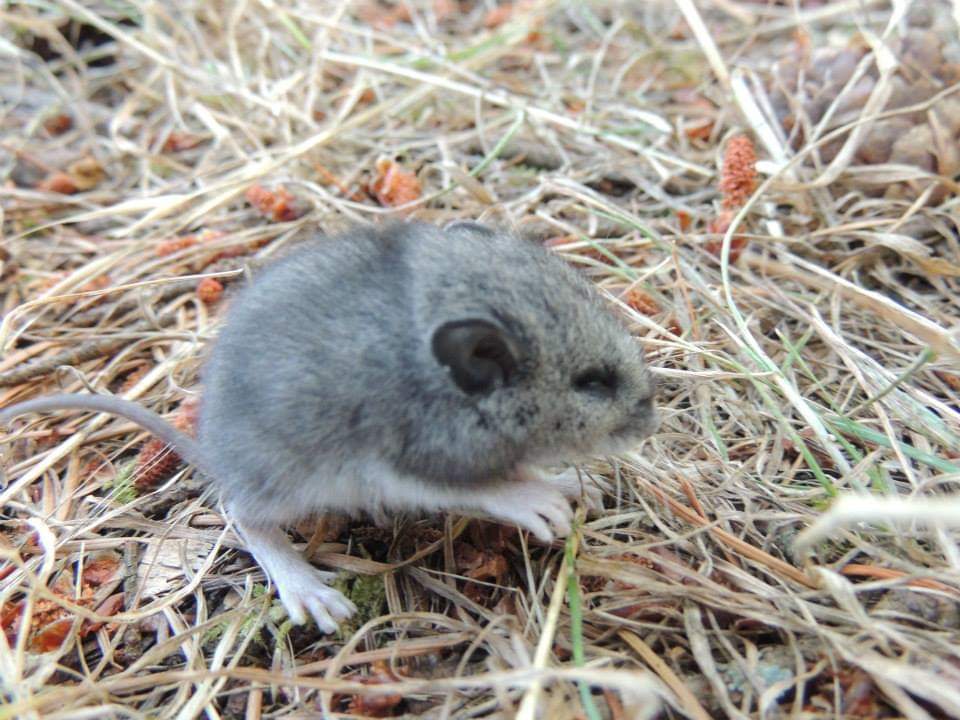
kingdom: Animalia
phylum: Chordata
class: Mammalia
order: Rodentia
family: Cricetidae
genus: Peromyscus
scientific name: Peromyscus maniculatus
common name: Deer mouse
